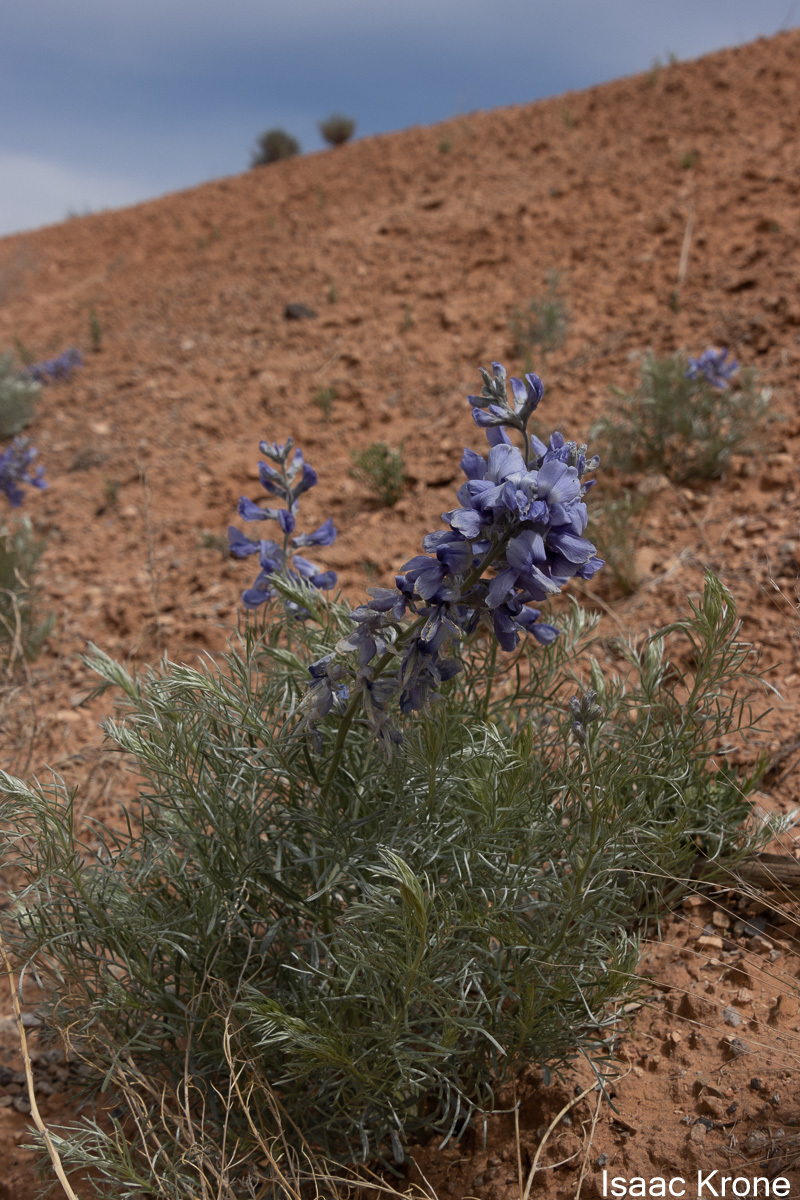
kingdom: Plantae
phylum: Tracheophyta
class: Magnoliopsida
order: Fabales
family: Fabaceae
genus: Sophora
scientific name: Sophora stenophylla
